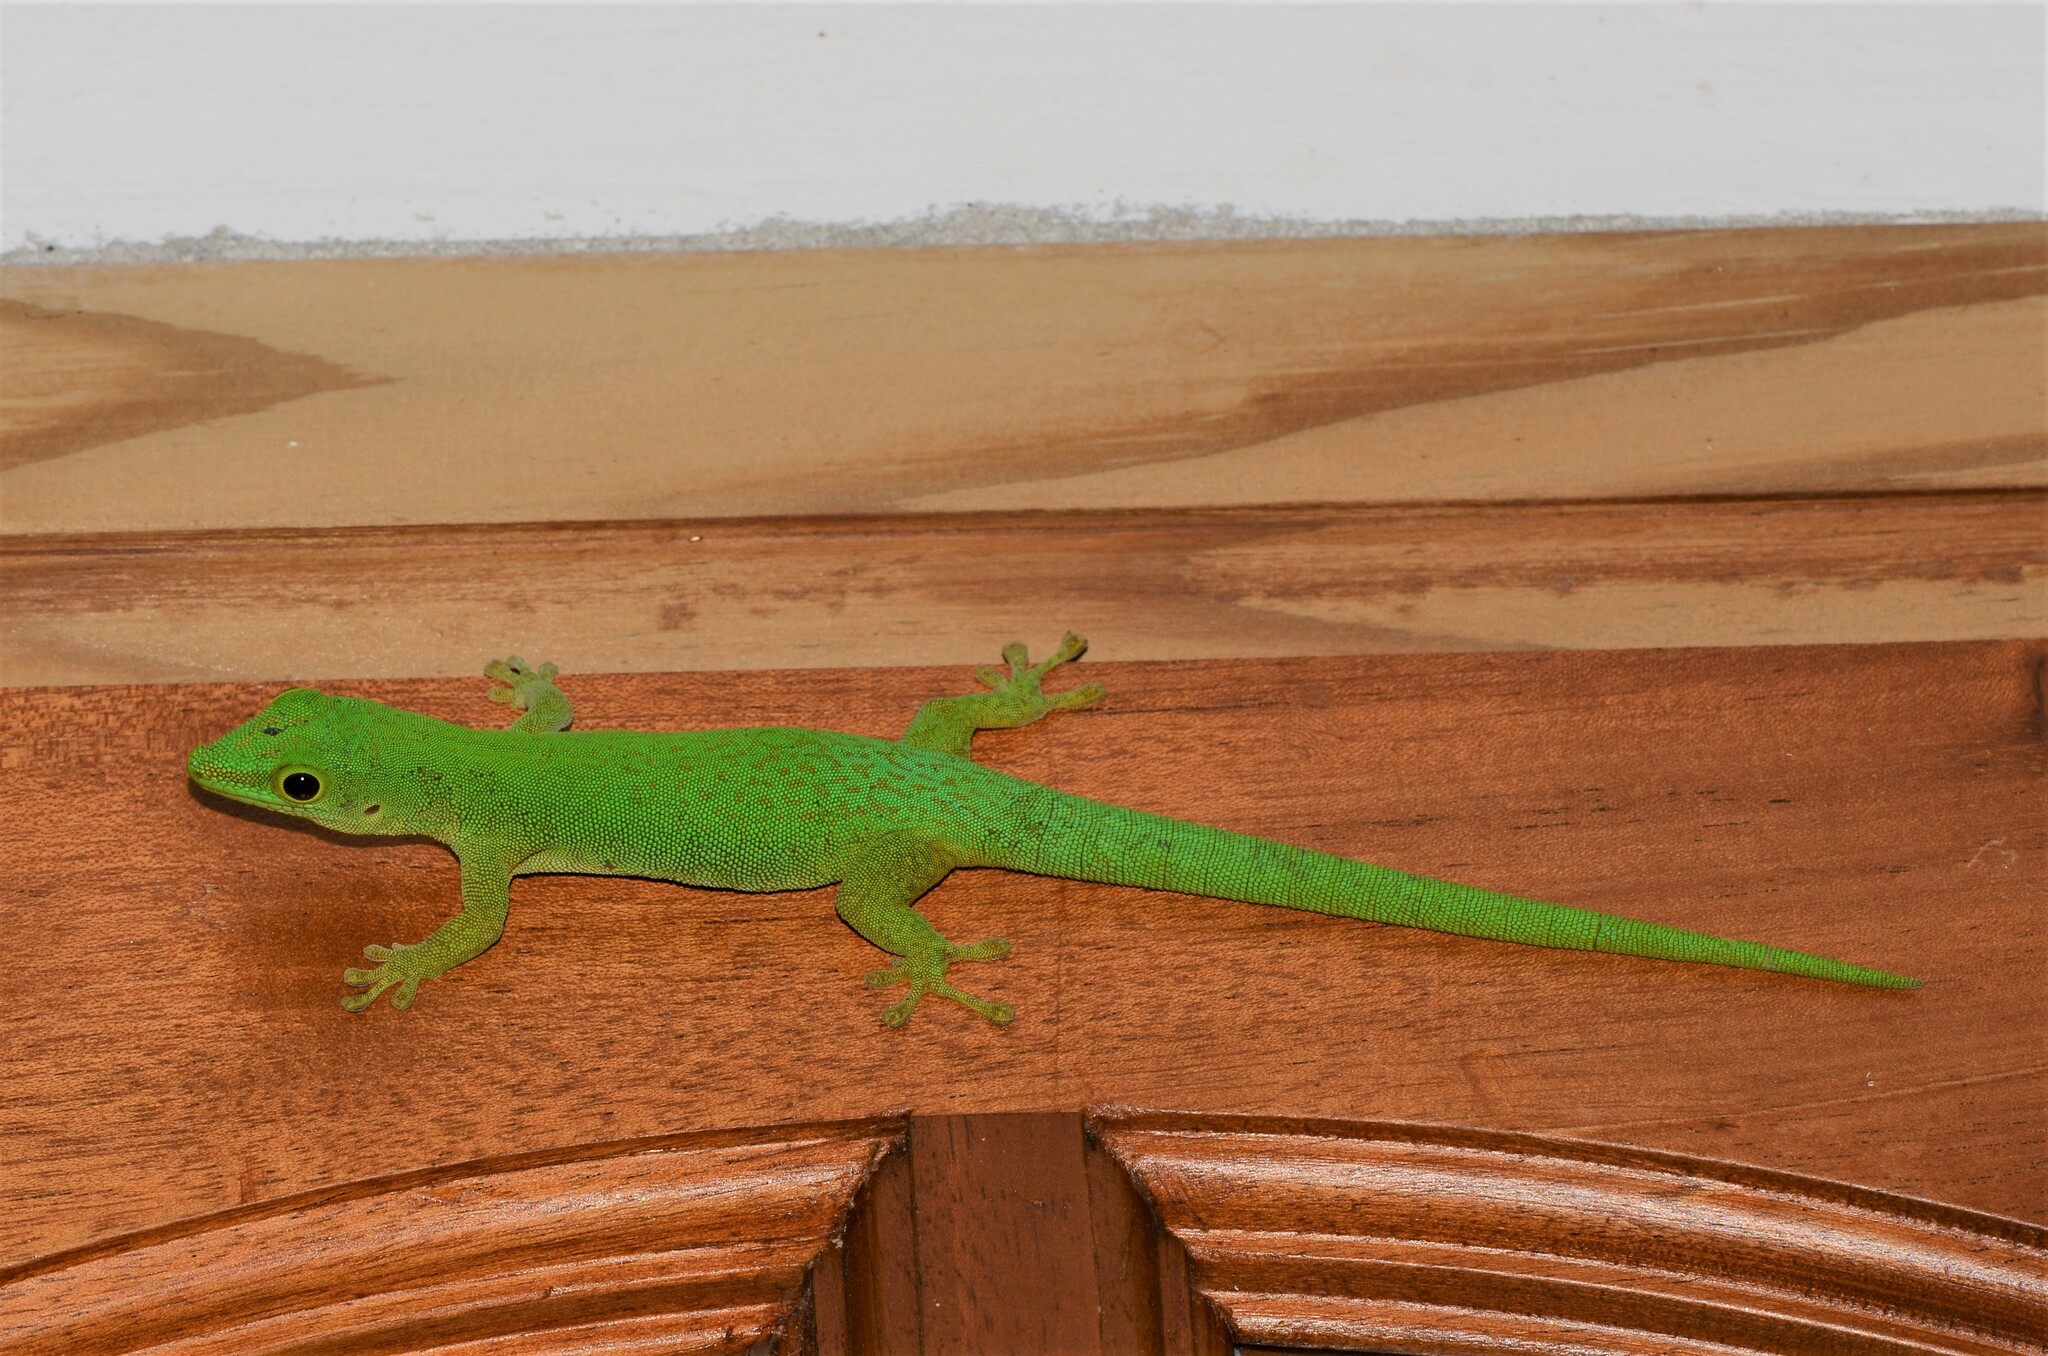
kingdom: Animalia
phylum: Chordata
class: Squamata
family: Gekkonidae
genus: Phelsuma
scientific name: Phelsuma sundbergi
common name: Seychelles giant day gecko
